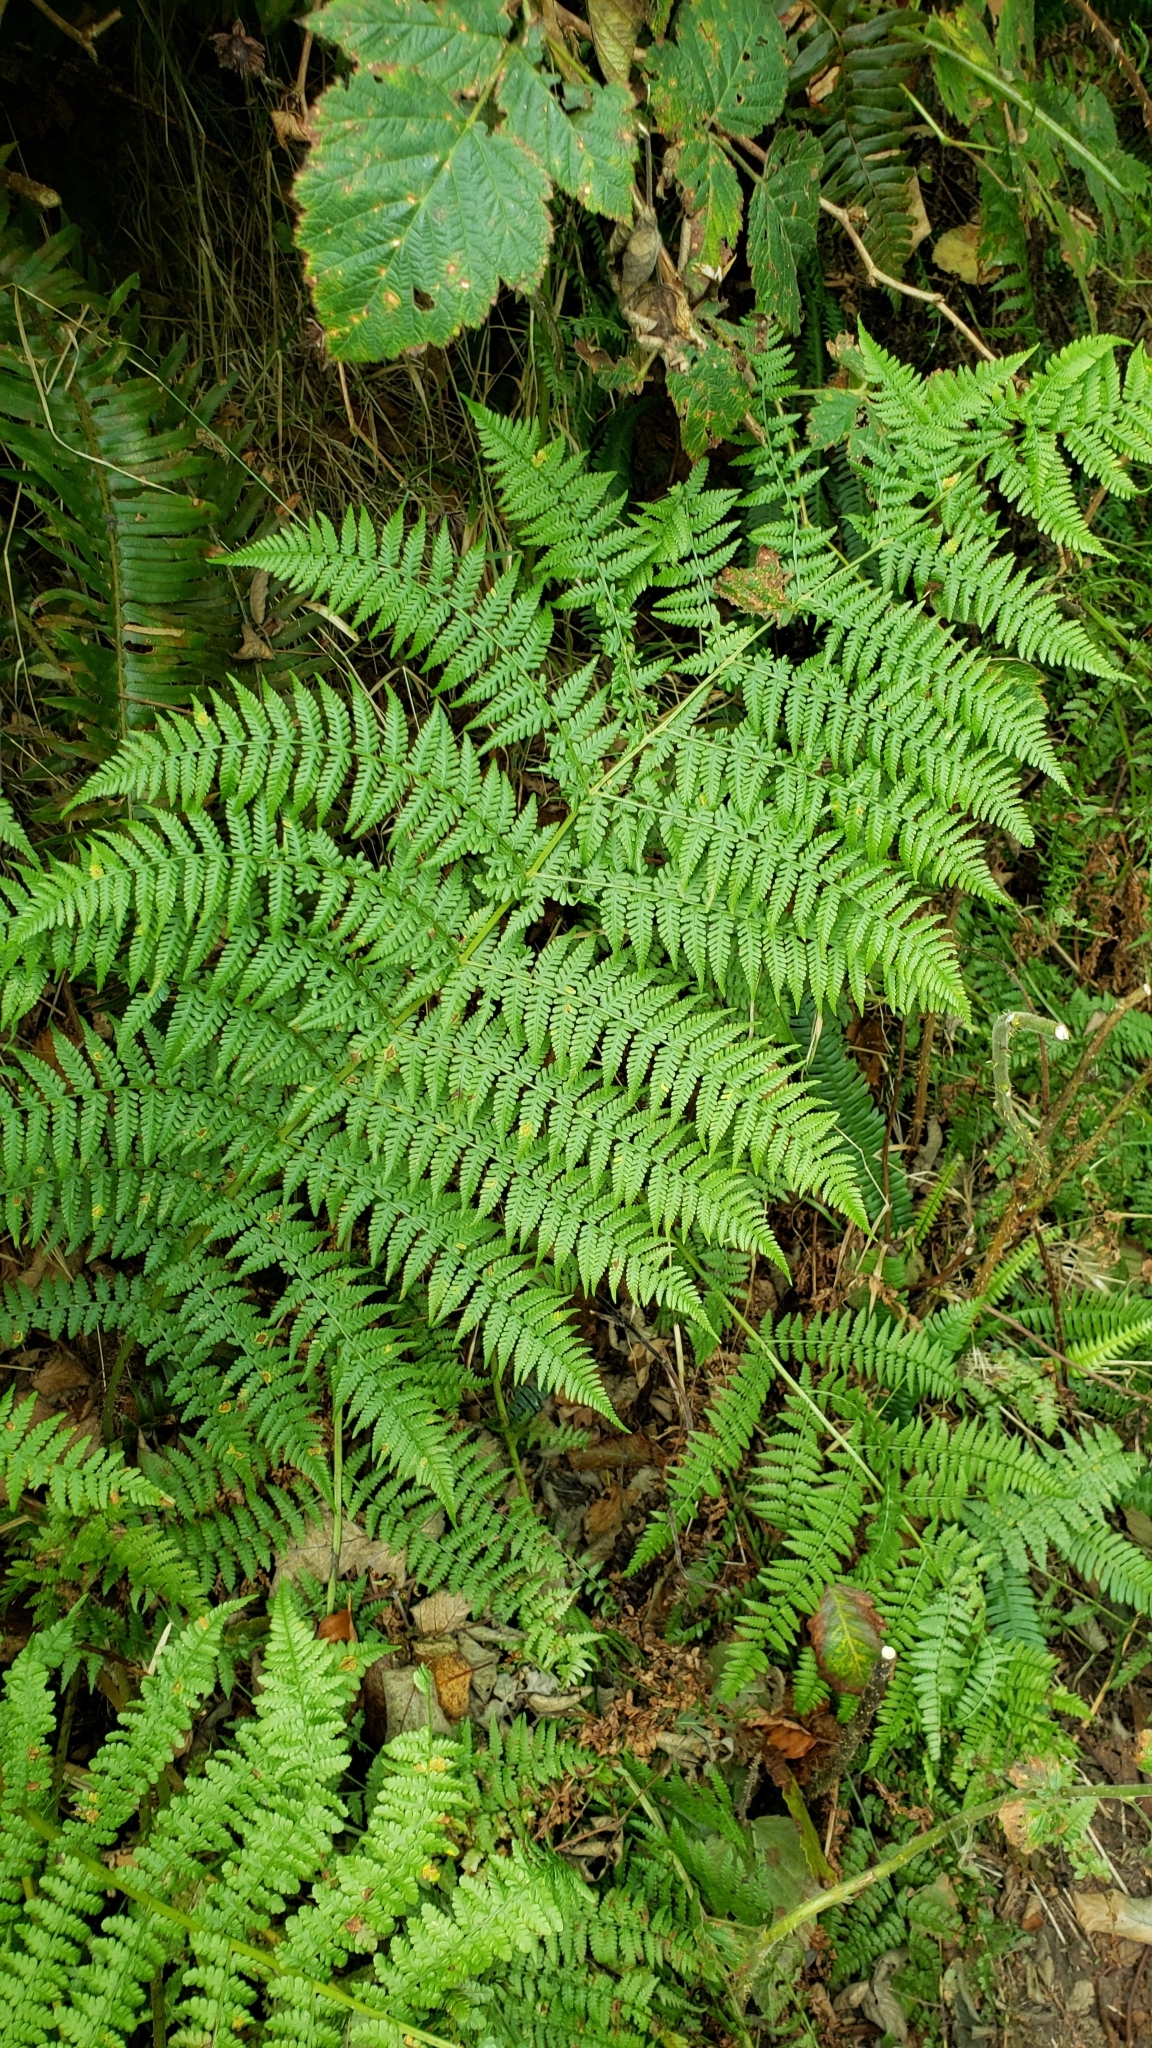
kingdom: Plantae
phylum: Tracheophyta
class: Polypodiopsida
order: Polypodiales
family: Athyriaceae
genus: Athyrium
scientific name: Athyrium filix-femina
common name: Lady fern
